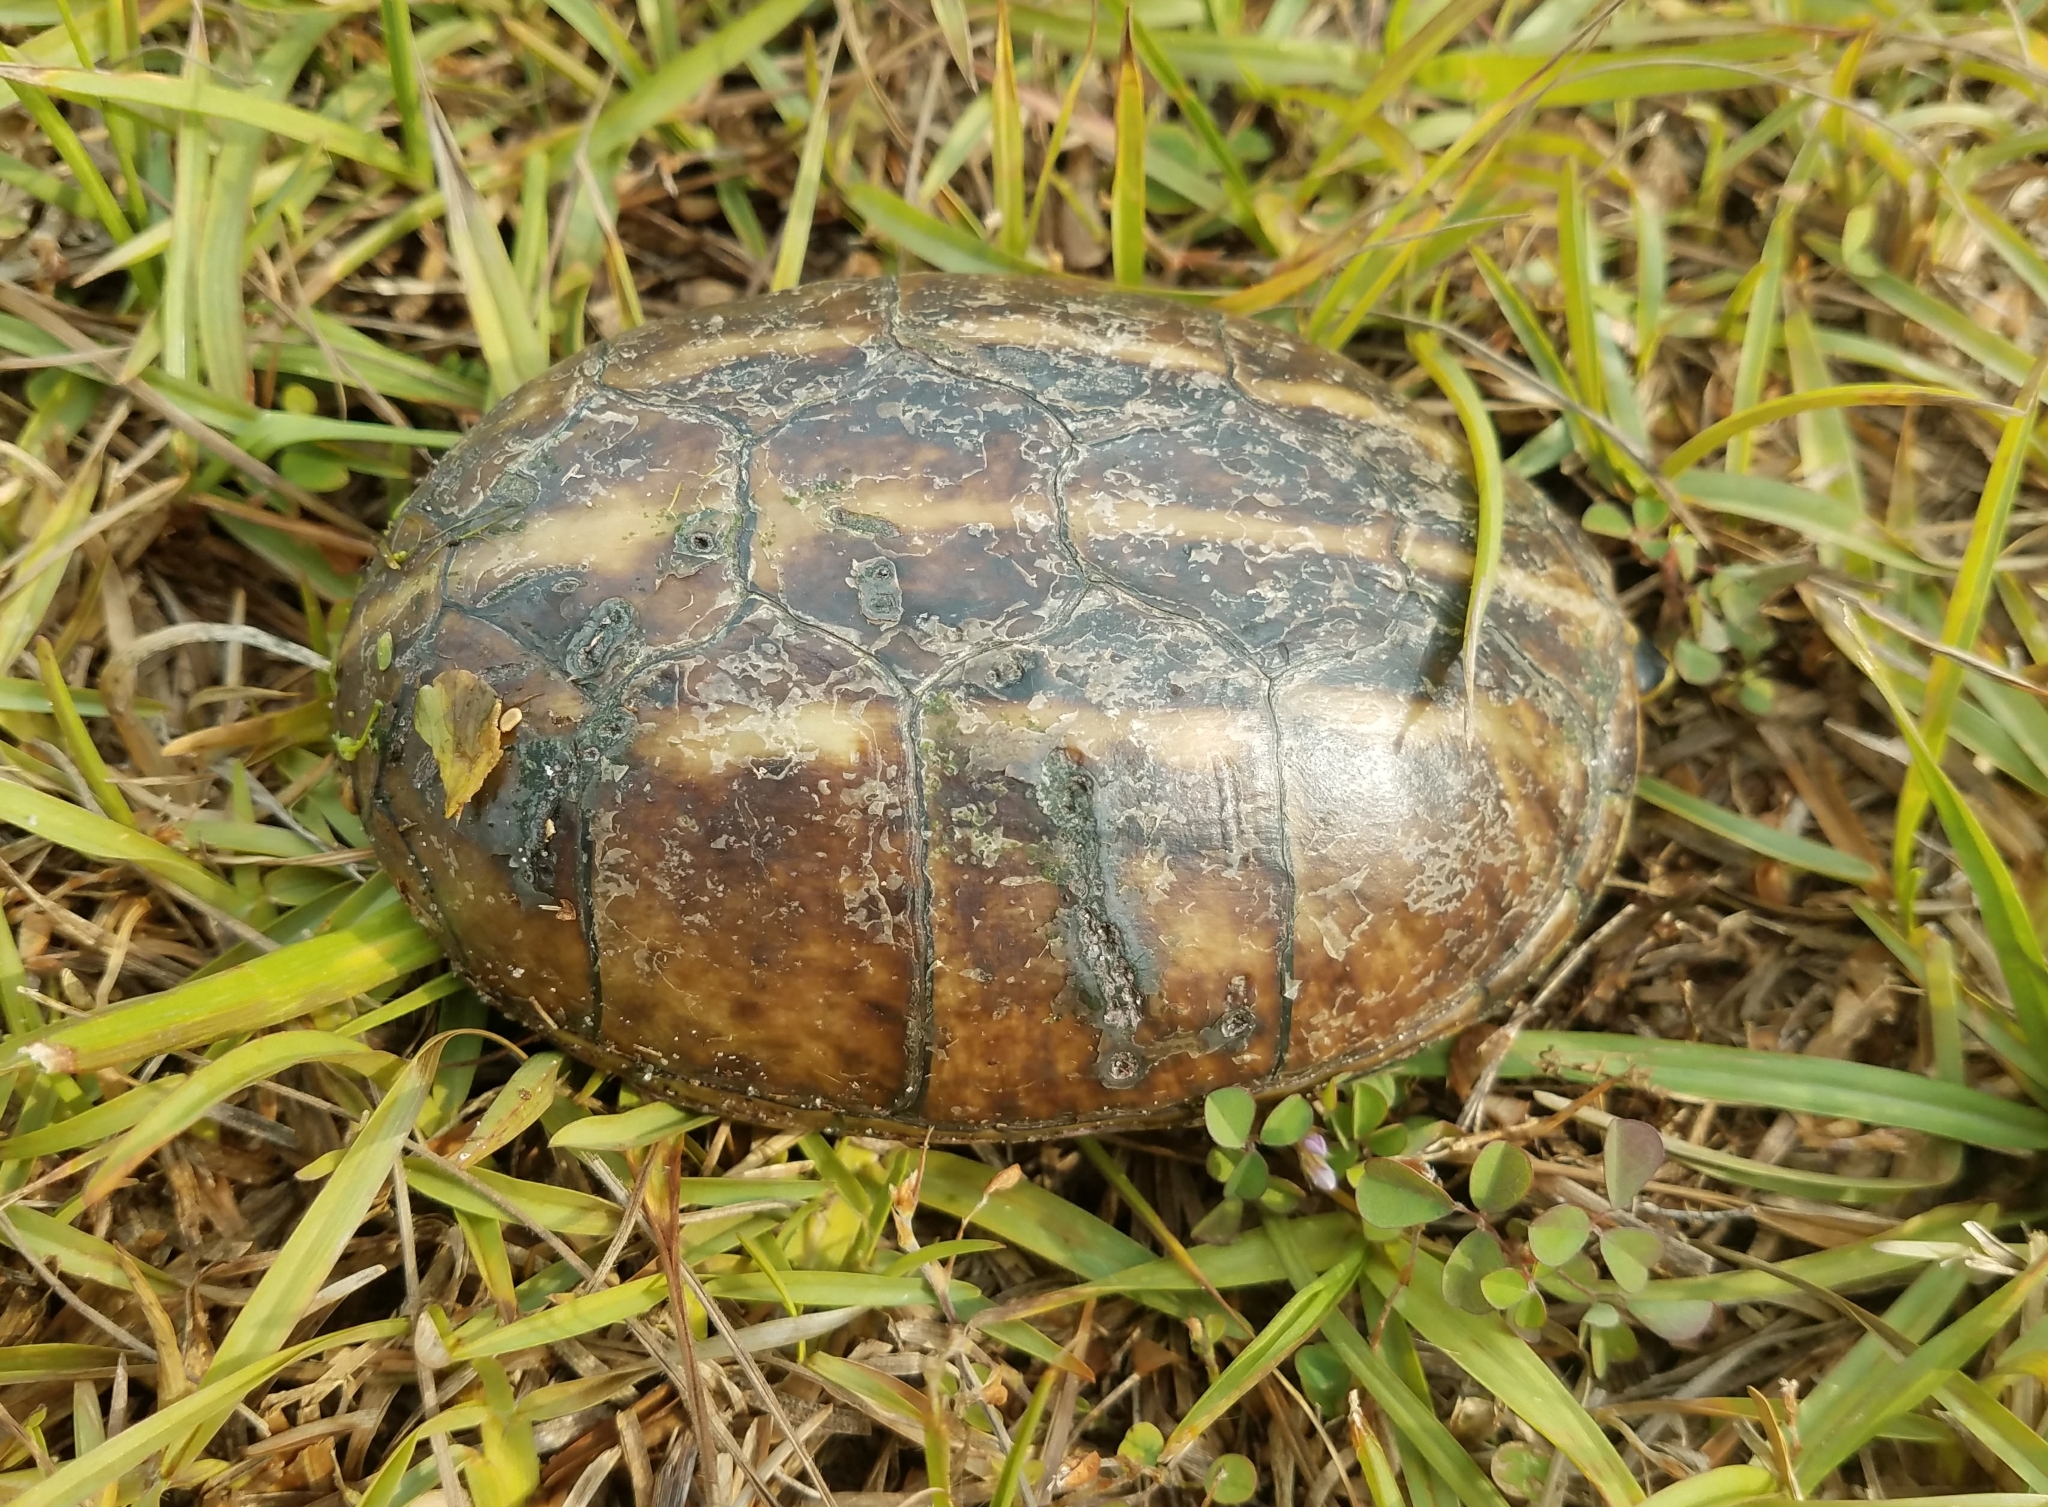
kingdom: Animalia
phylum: Chordata
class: Testudines
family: Kinosternidae
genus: Kinosternon
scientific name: Kinosternon baurii
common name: Striped mud turtle
